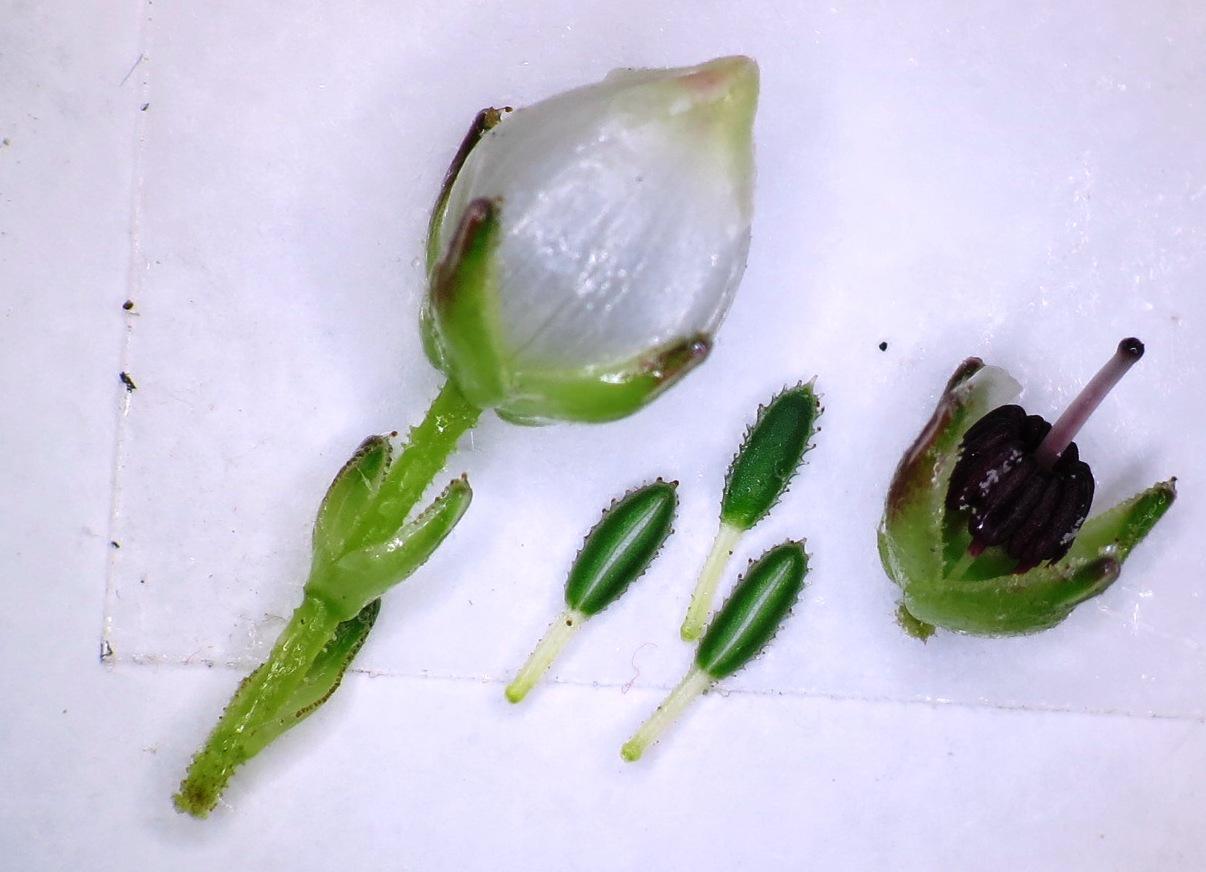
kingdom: Plantae
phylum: Tracheophyta
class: Magnoliopsida
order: Ericales
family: Ericaceae
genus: Erica
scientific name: Erica odorata
